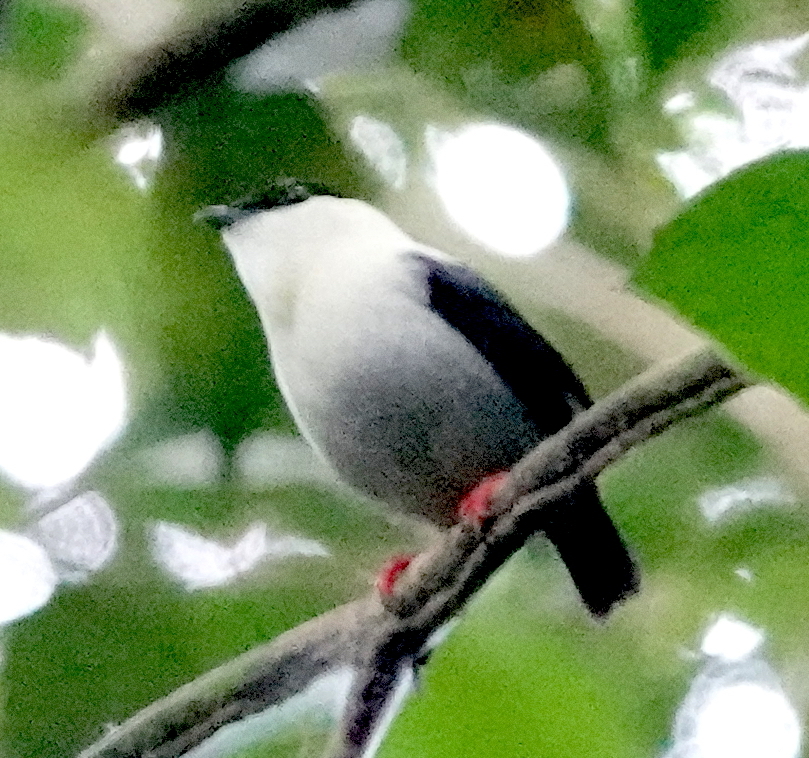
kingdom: Animalia
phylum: Chordata
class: Aves
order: Passeriformes
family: Pipridae
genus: Manacus
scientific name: Manacus manacus
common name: White-bearded manakin
